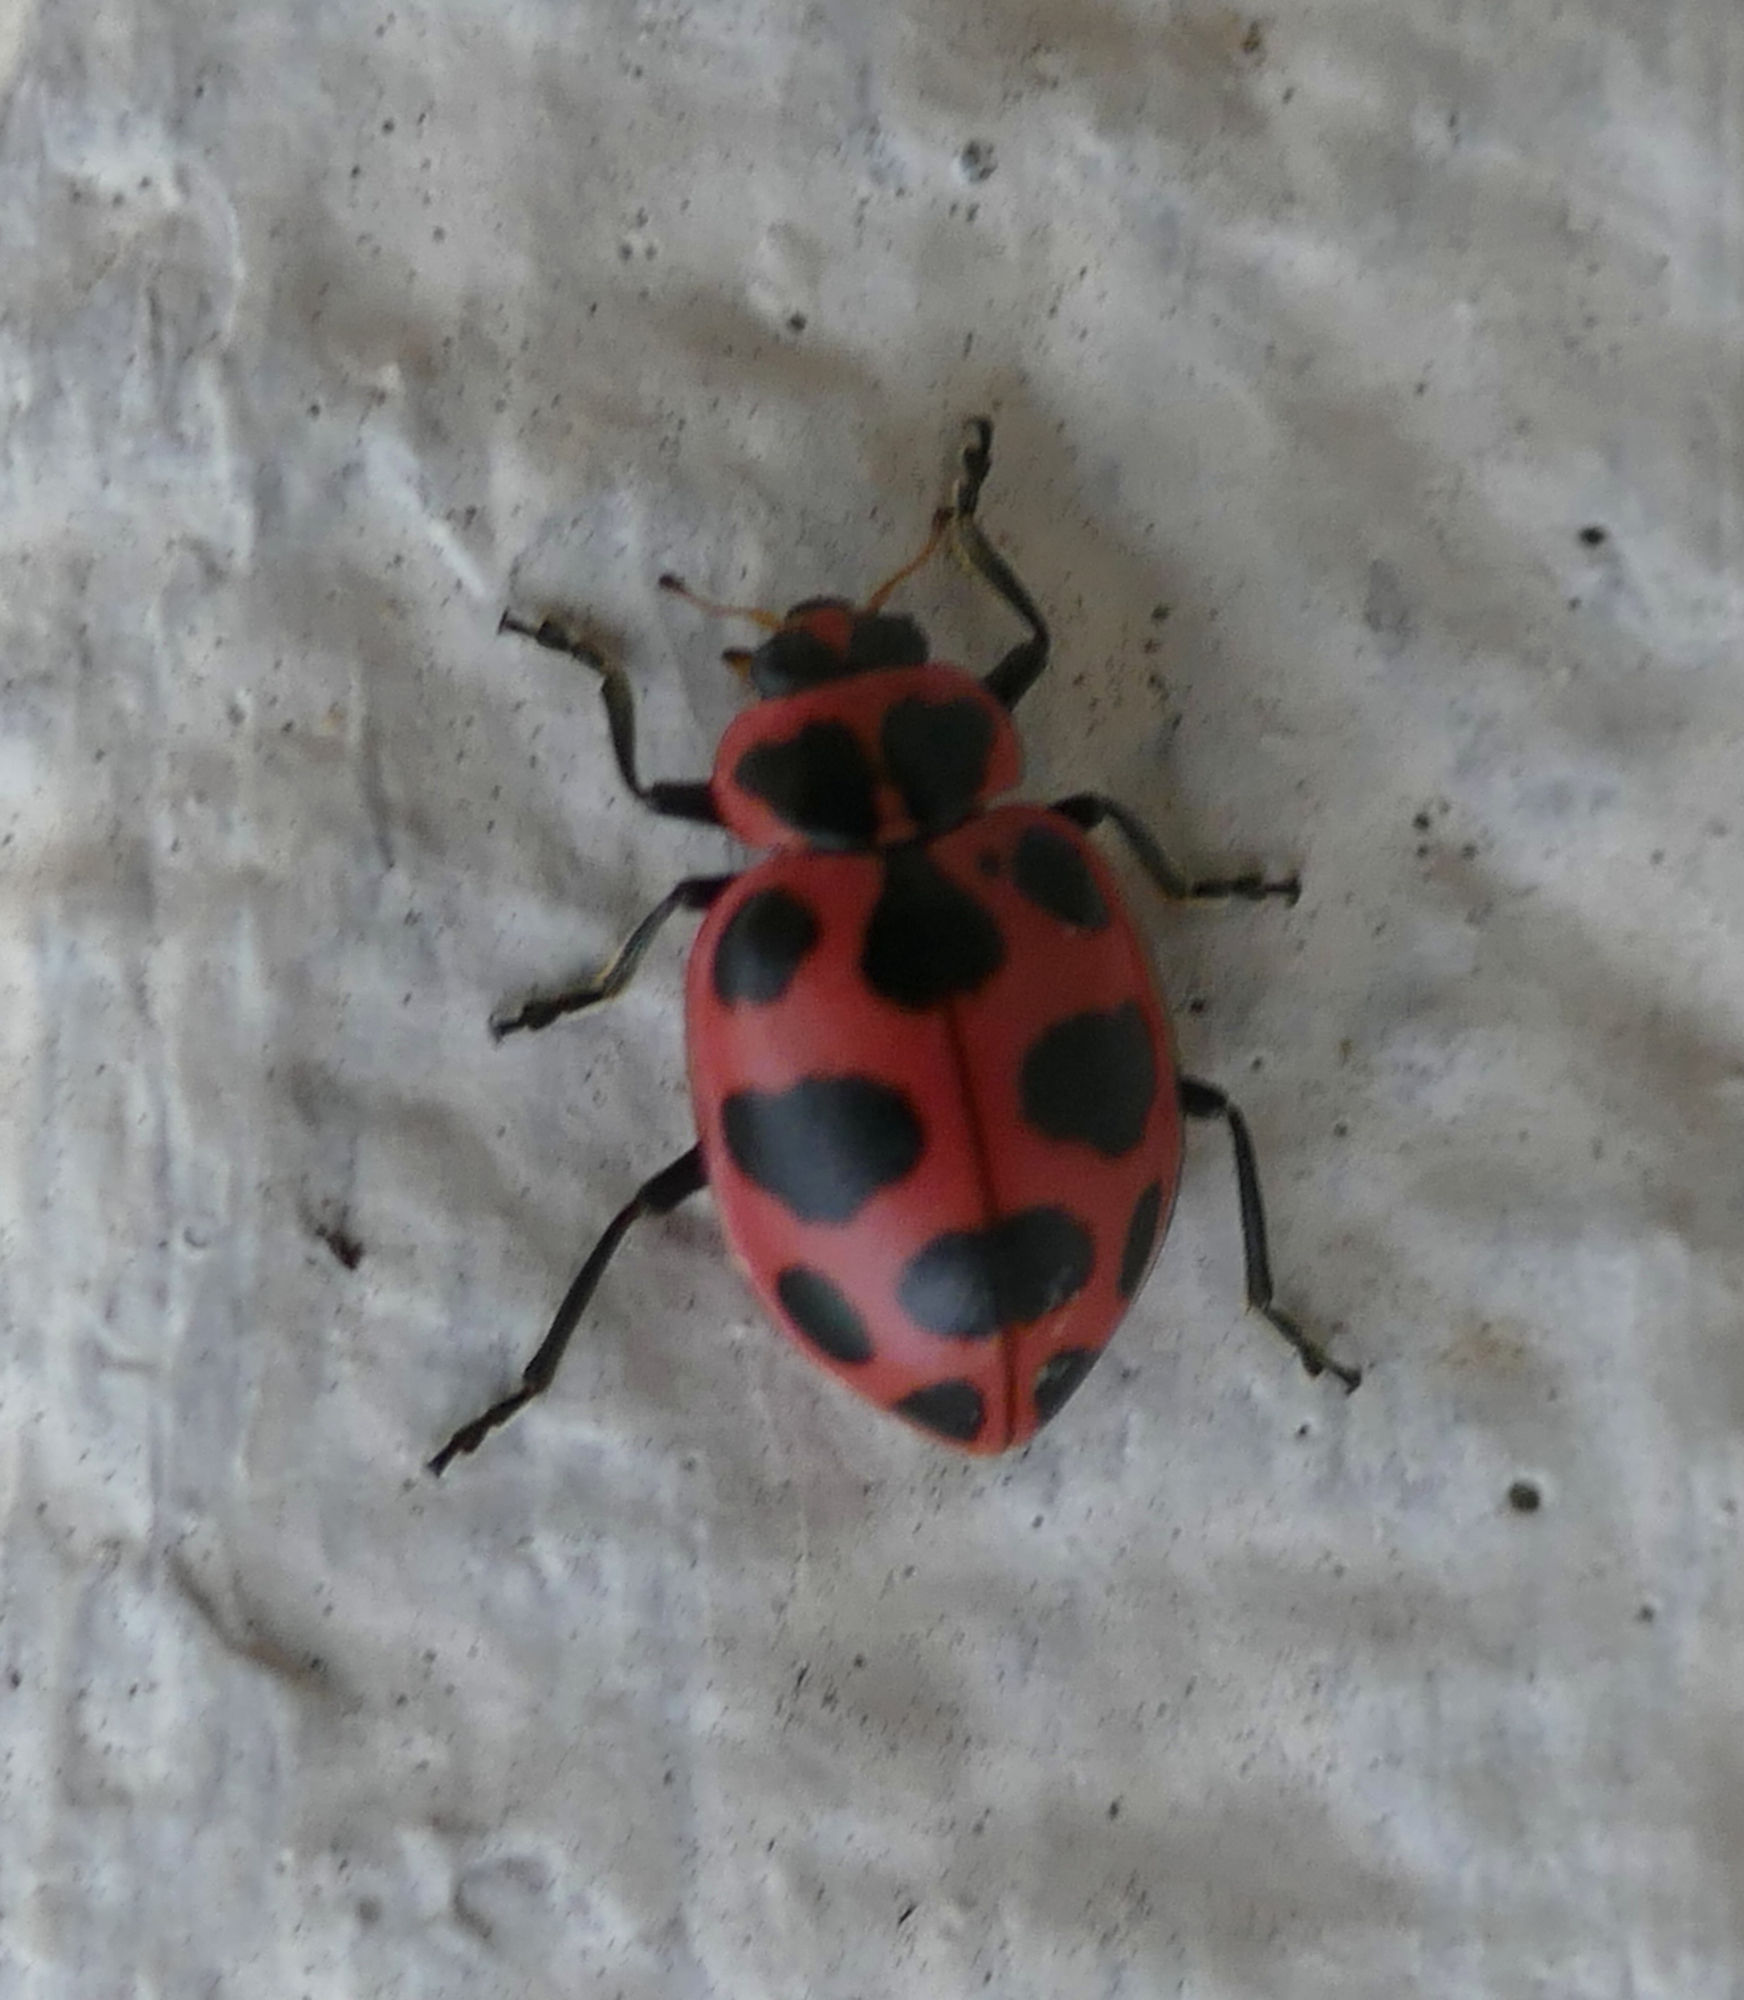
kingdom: Animalia
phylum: Arthropoda
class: Insecta
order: Coleoptera
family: Coccinellidae
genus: Coleomegilla
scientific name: Coleomegilla maculata
